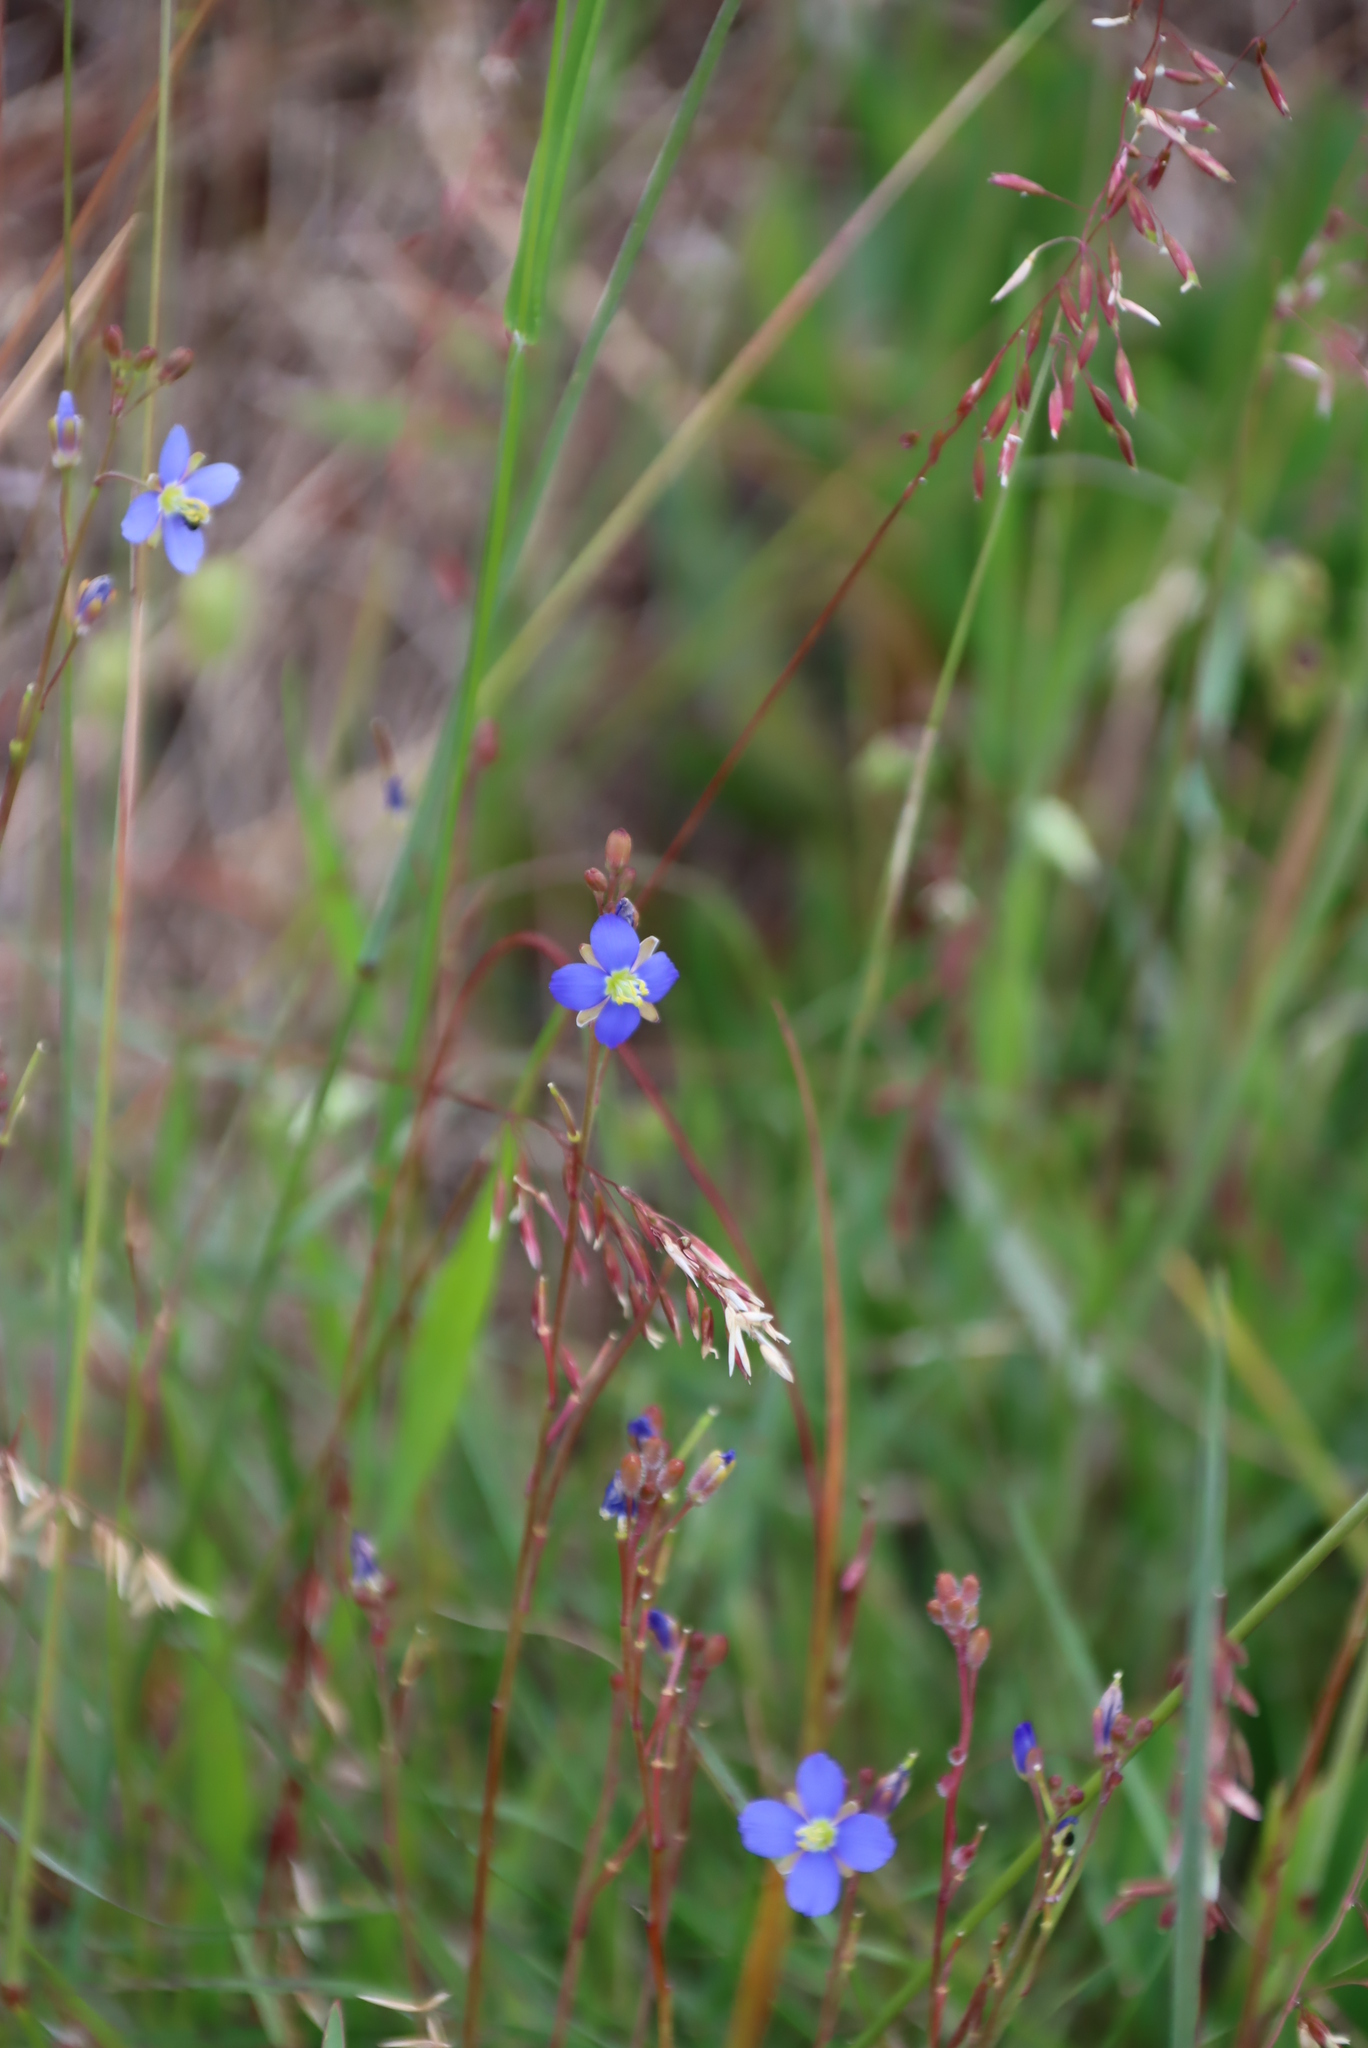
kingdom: Plantae
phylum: Tracheophyta
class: Magnoliopsida
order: Brassicales
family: Brassicaceae
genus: Heliophila
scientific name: Heliophila africana
